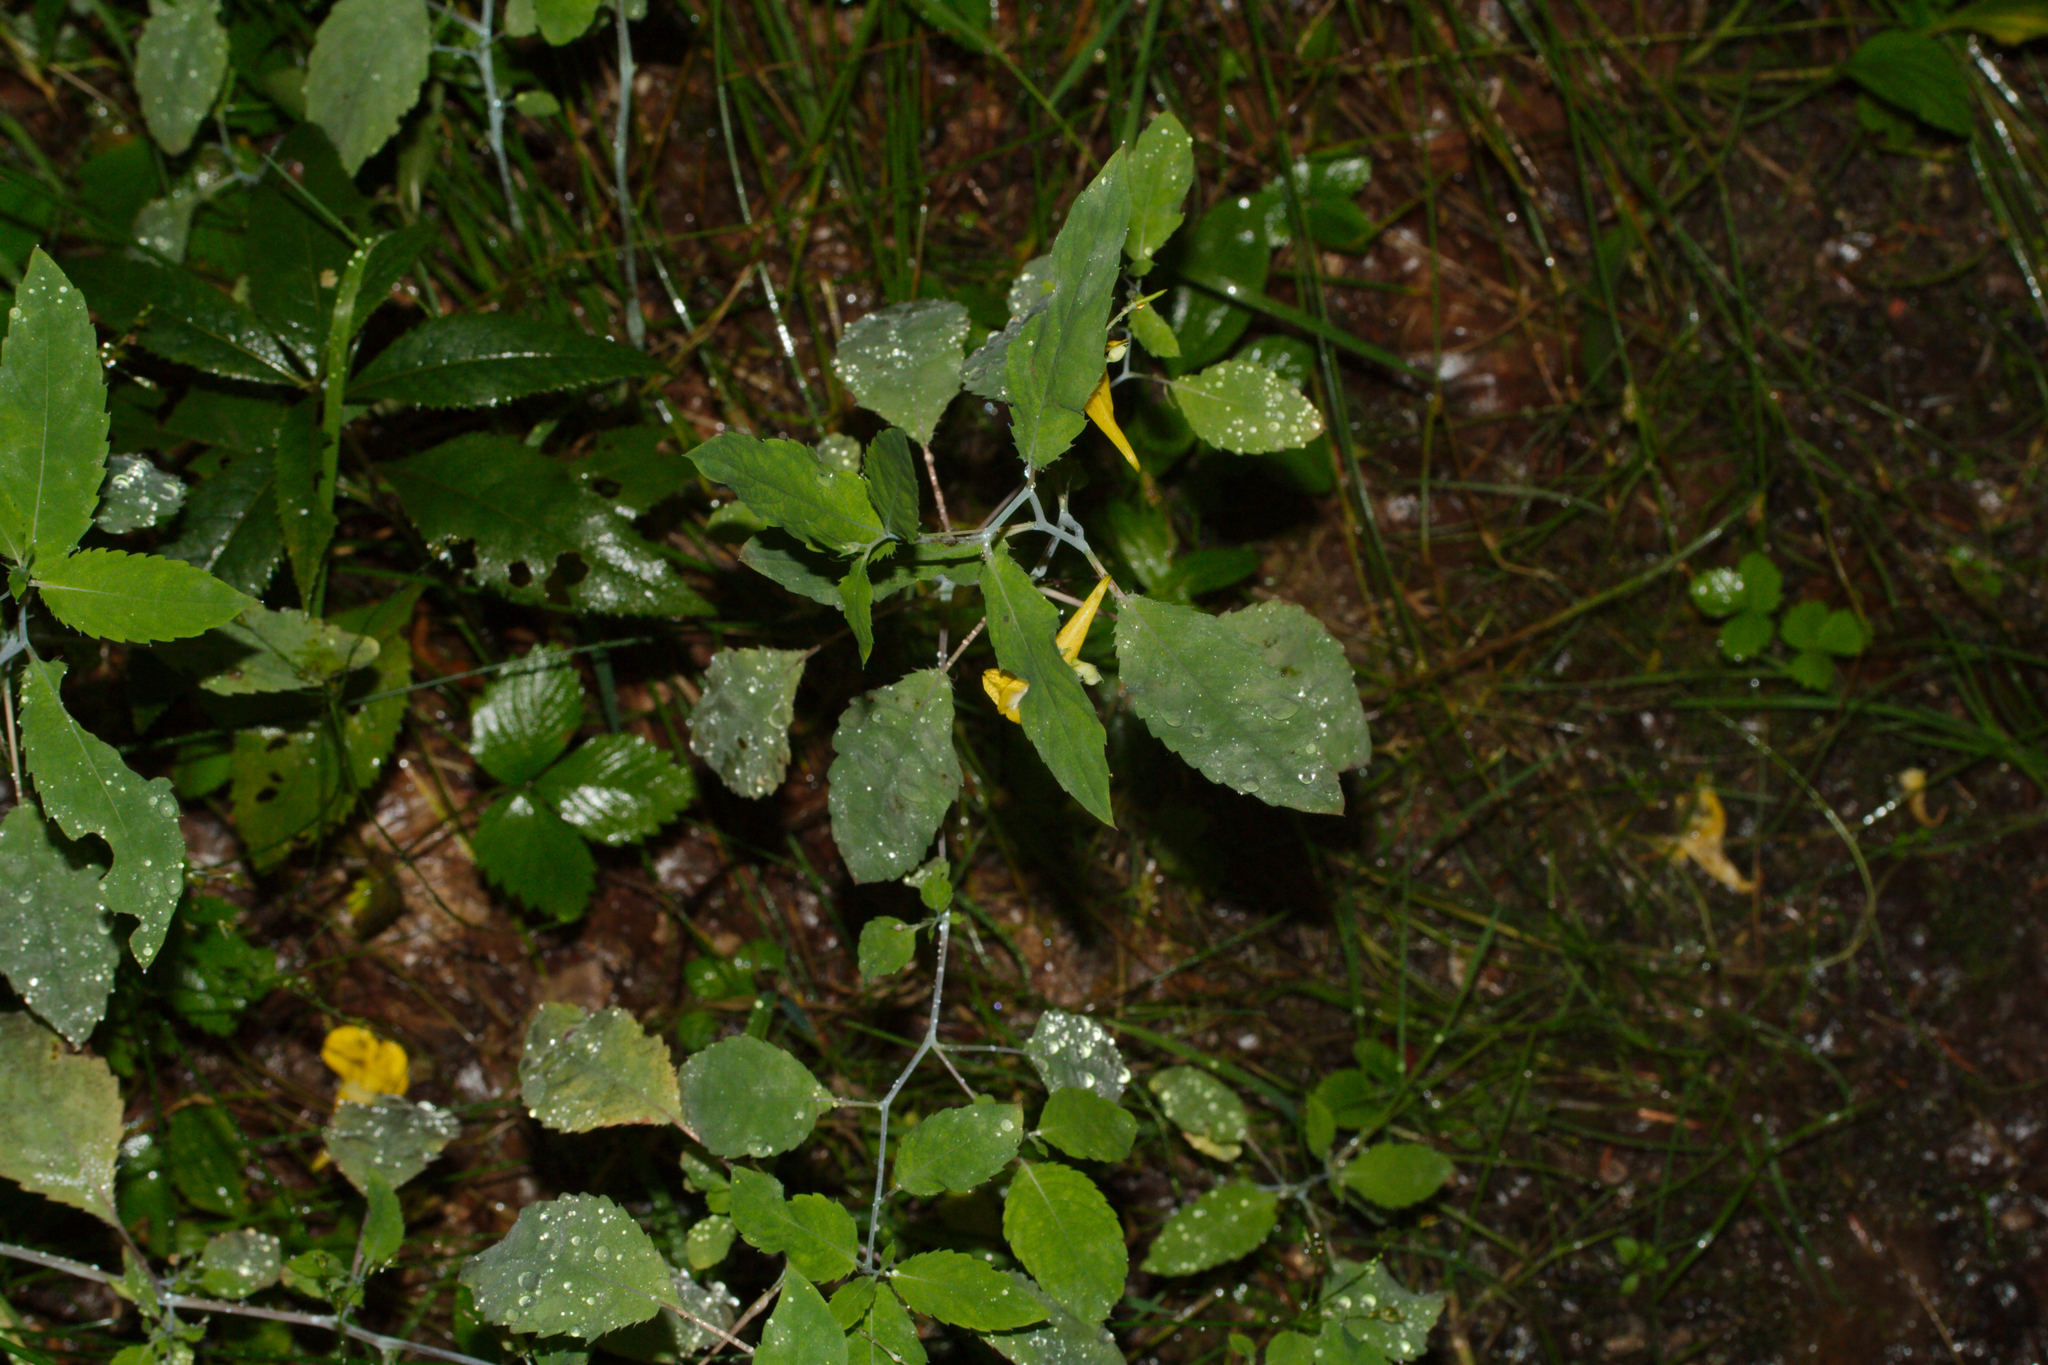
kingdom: Plantae
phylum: Tracheophyta
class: Magnoliopsida
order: Ericales
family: Balsaminaceae
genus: Impatiens
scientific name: Impatiens noli-tangere
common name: Touch-me-not balsam
